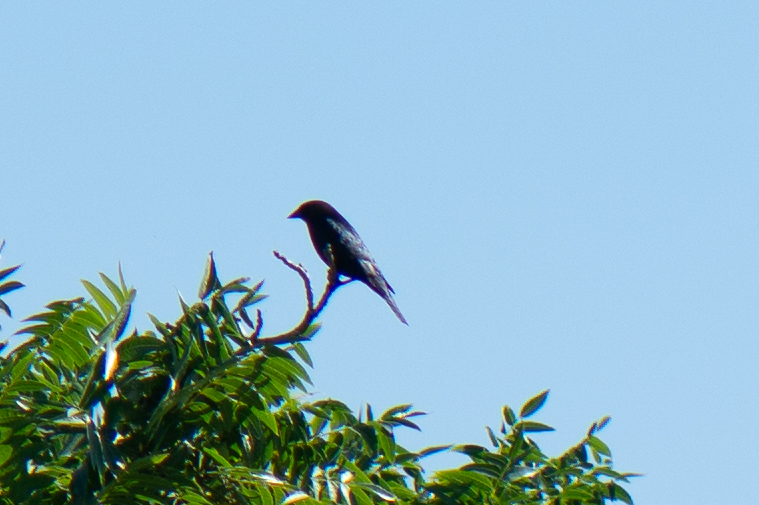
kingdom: Animalia
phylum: Chordata
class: Aves
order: Passeriformes
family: Icteridae
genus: Molothrus
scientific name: Molothrus ater
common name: Brown-headed cowbird
